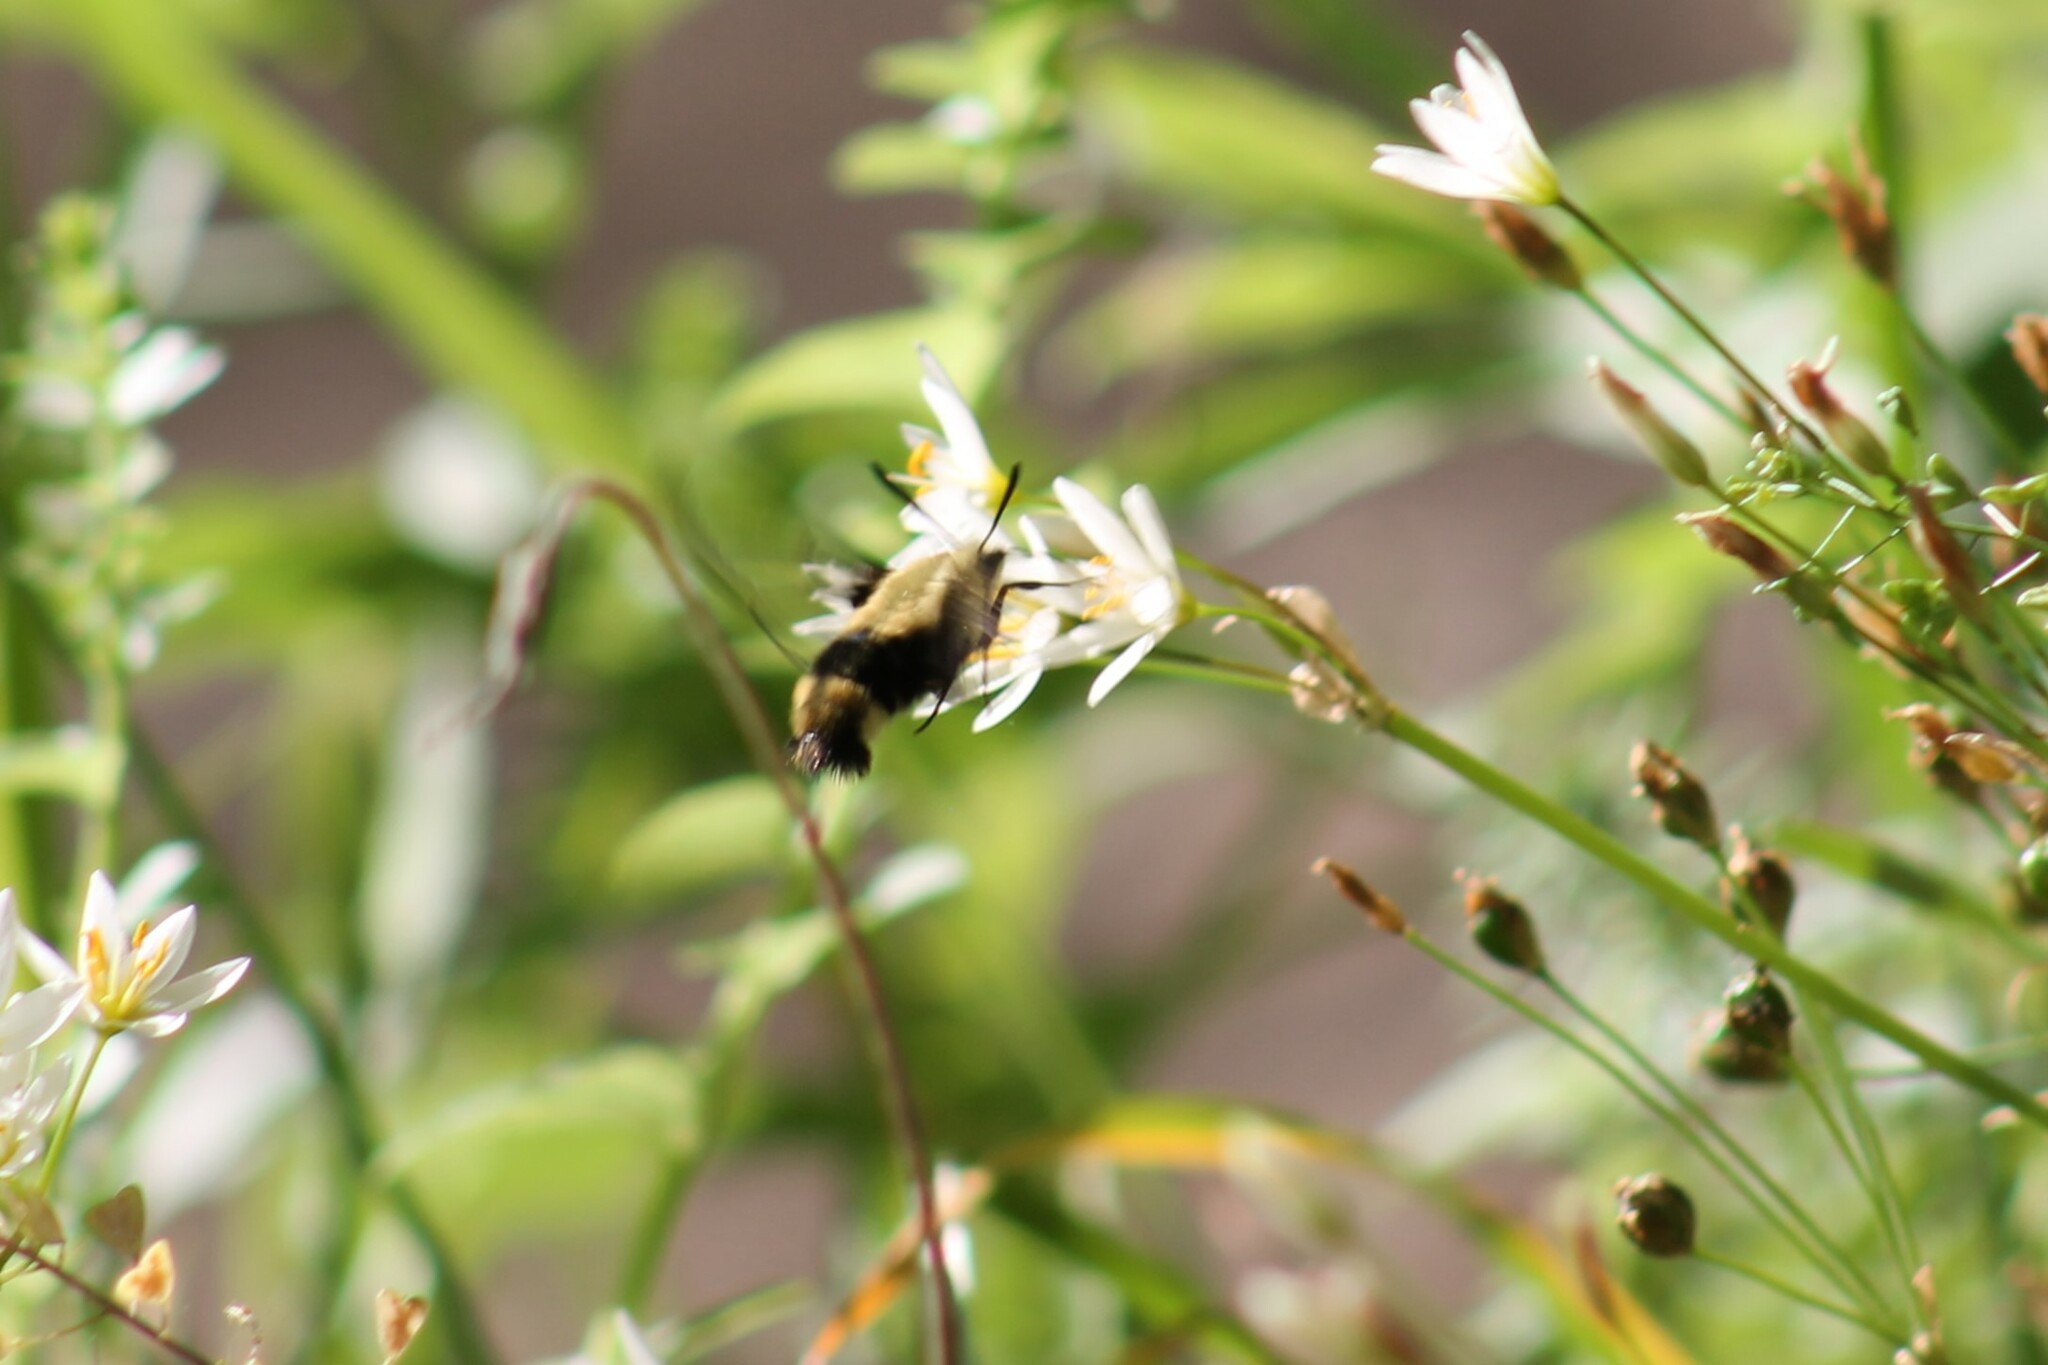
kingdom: Animalia
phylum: Arthropoda
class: Insecta
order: Lepidoptera
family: Sphingidae
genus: Hemaris
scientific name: Hemaris diffinis
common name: Bumblebee moth
